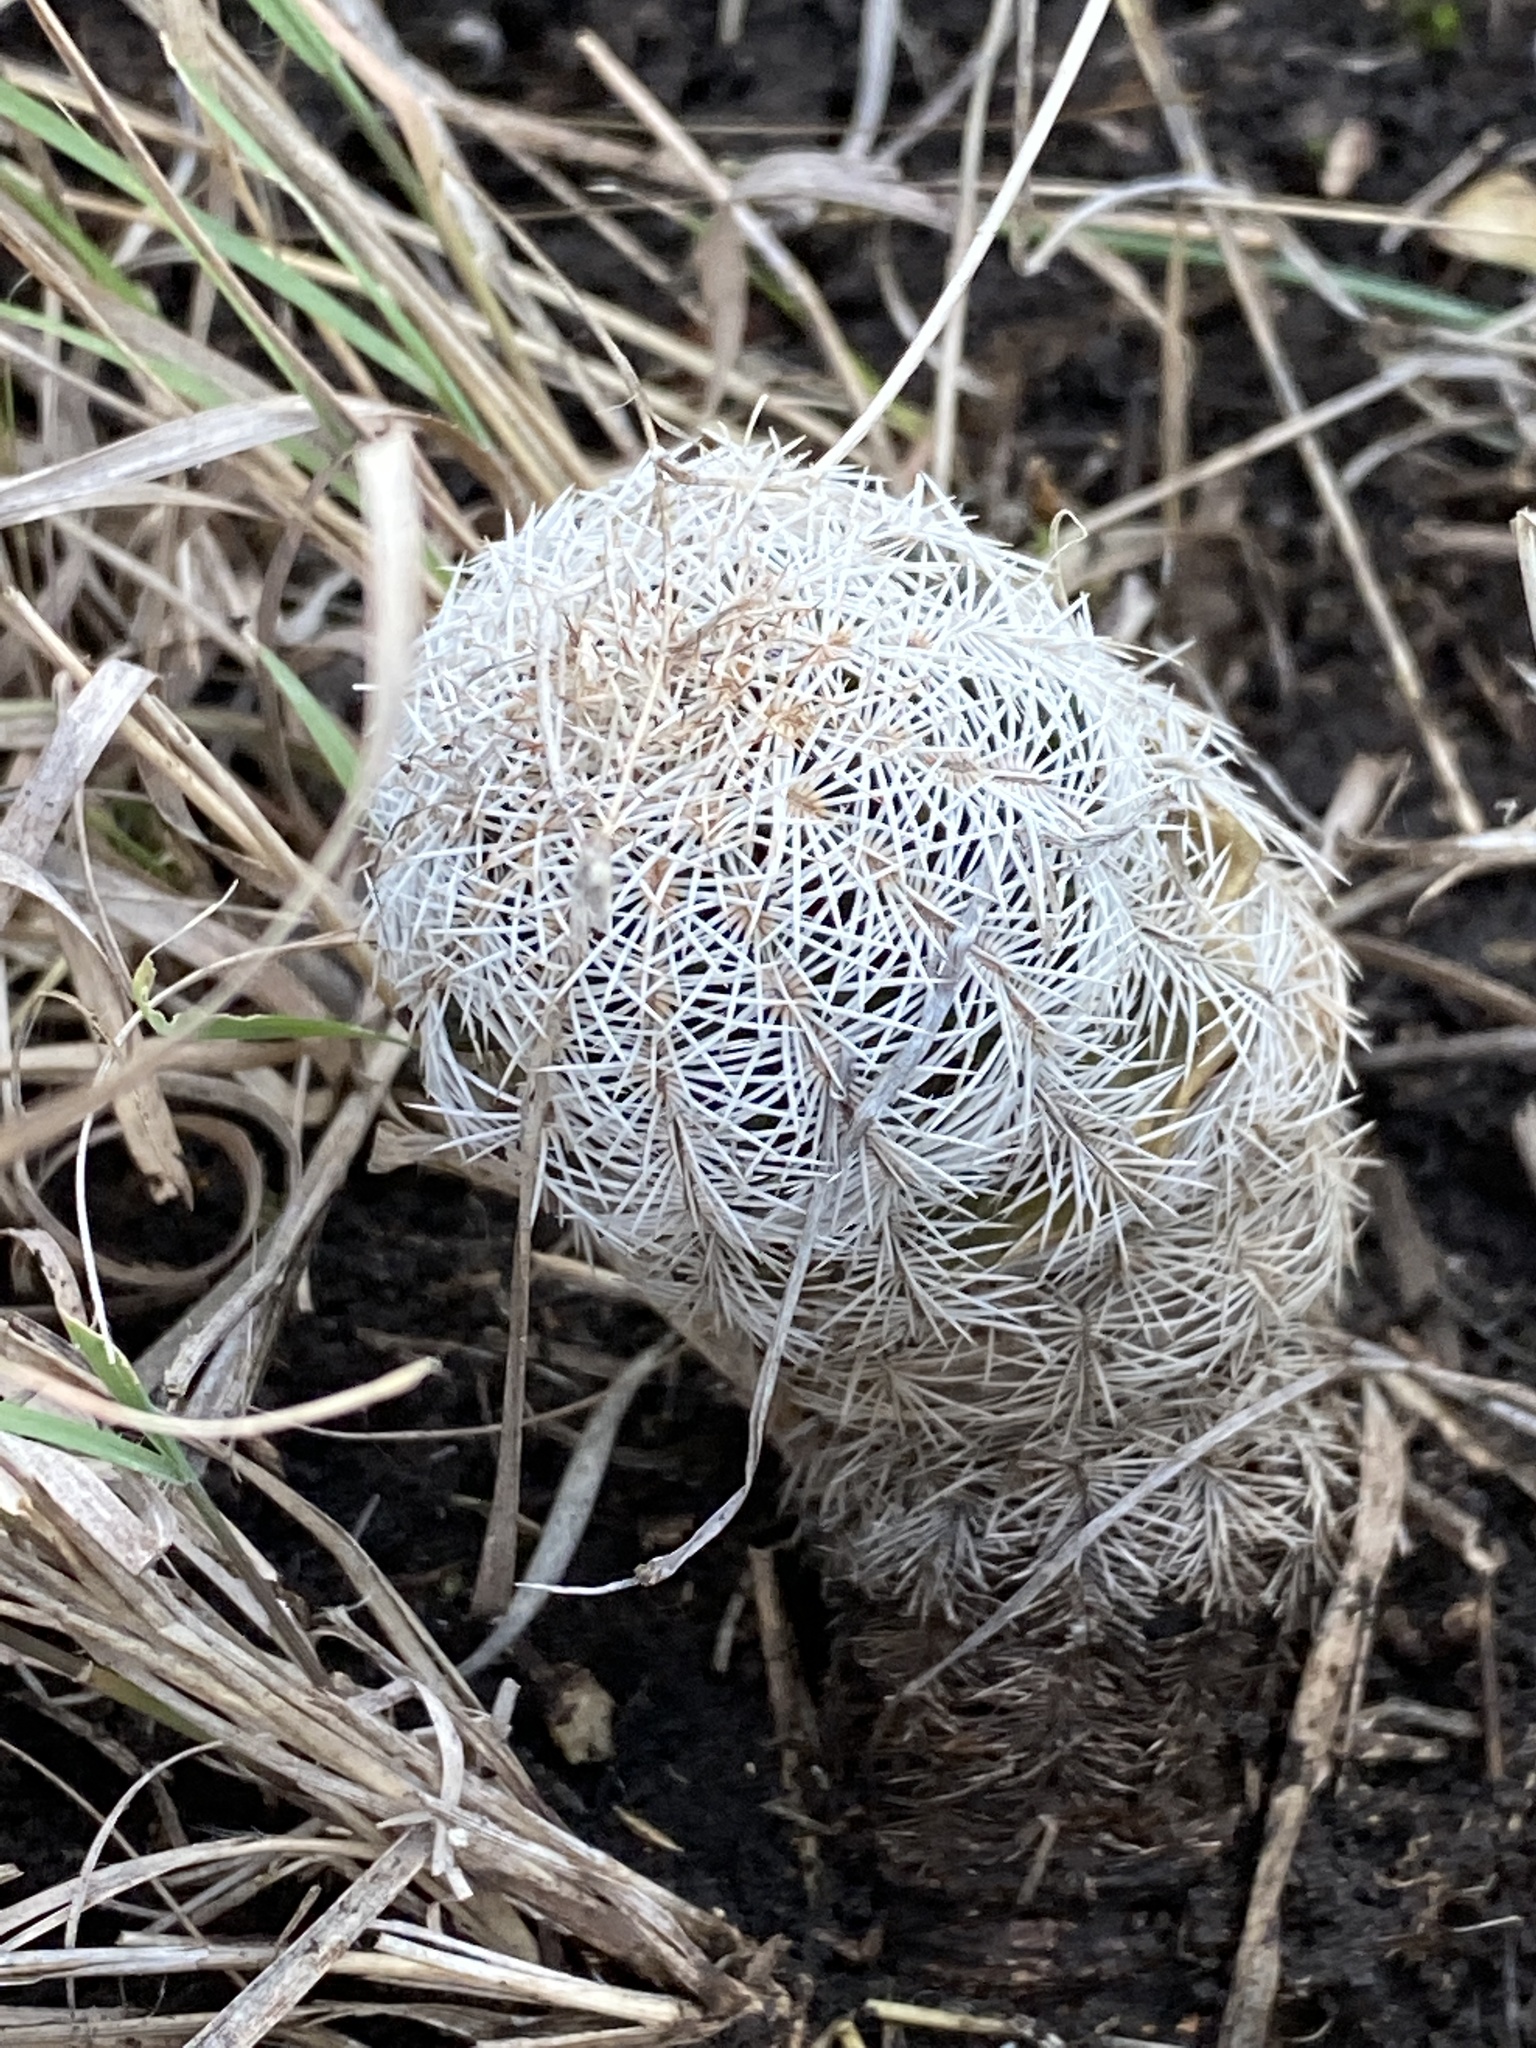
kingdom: Plantae
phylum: Tracheophyta
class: Magnoliopsida
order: Caryophyllales
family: Cactaceae
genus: Echinocereus
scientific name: Echinocereus reichenbachii
